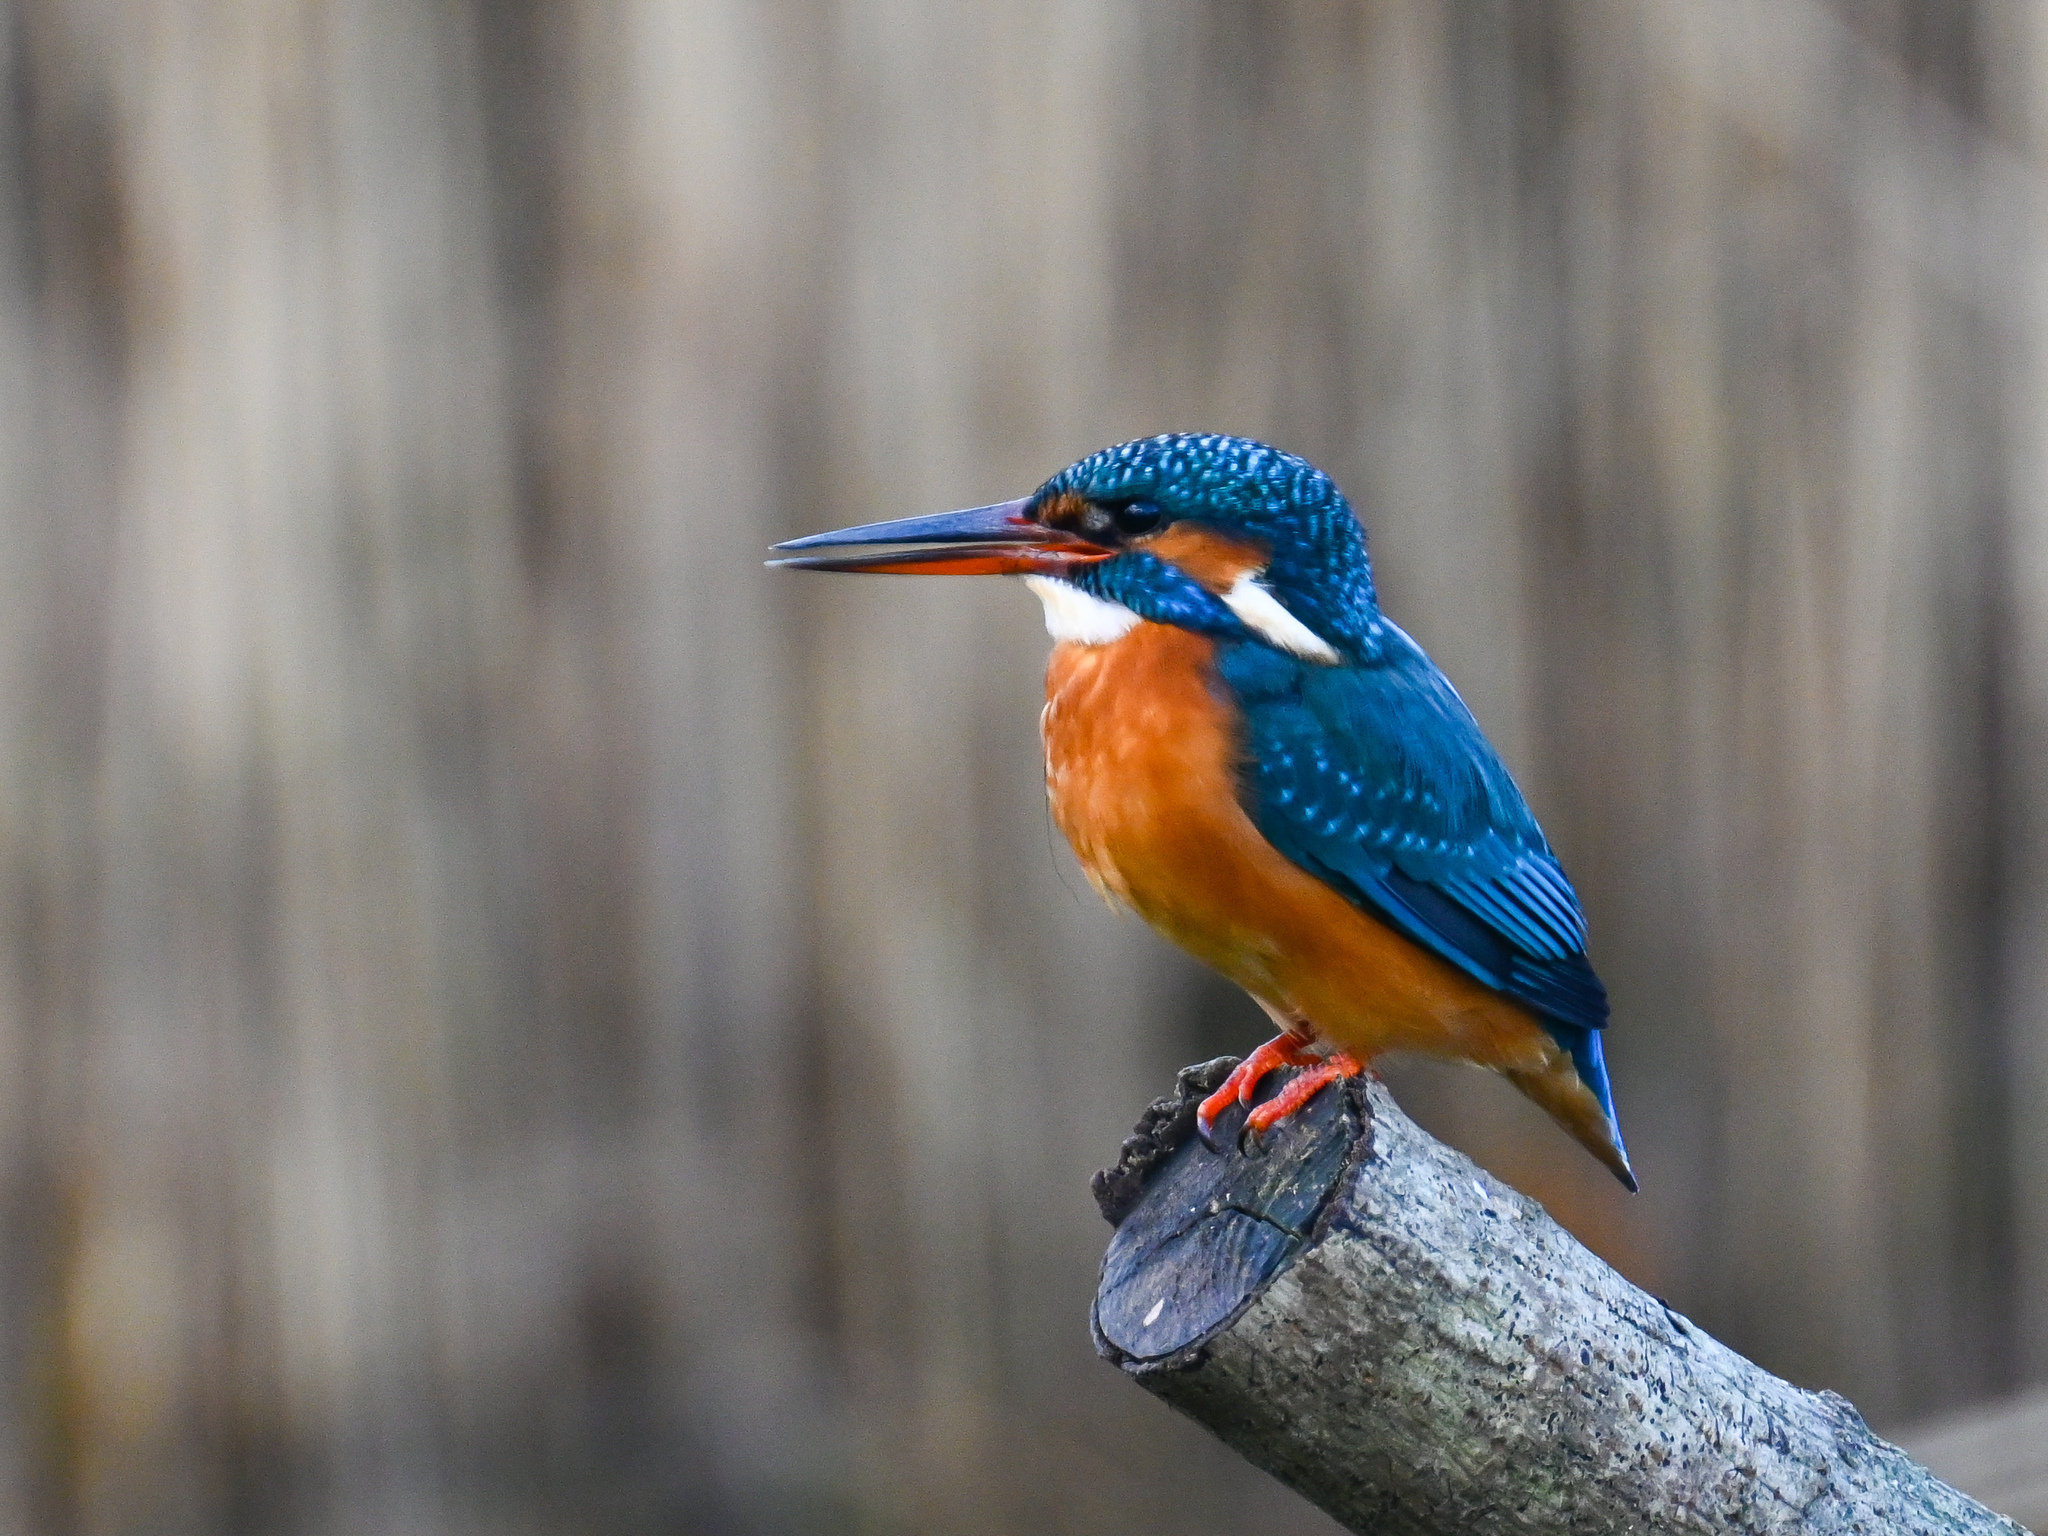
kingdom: Animalia
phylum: Chordata
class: Aves
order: Coraciiformes
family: Alcedinidae
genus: Alcedo
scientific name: Alcedo atthis
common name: Common kingfisher
